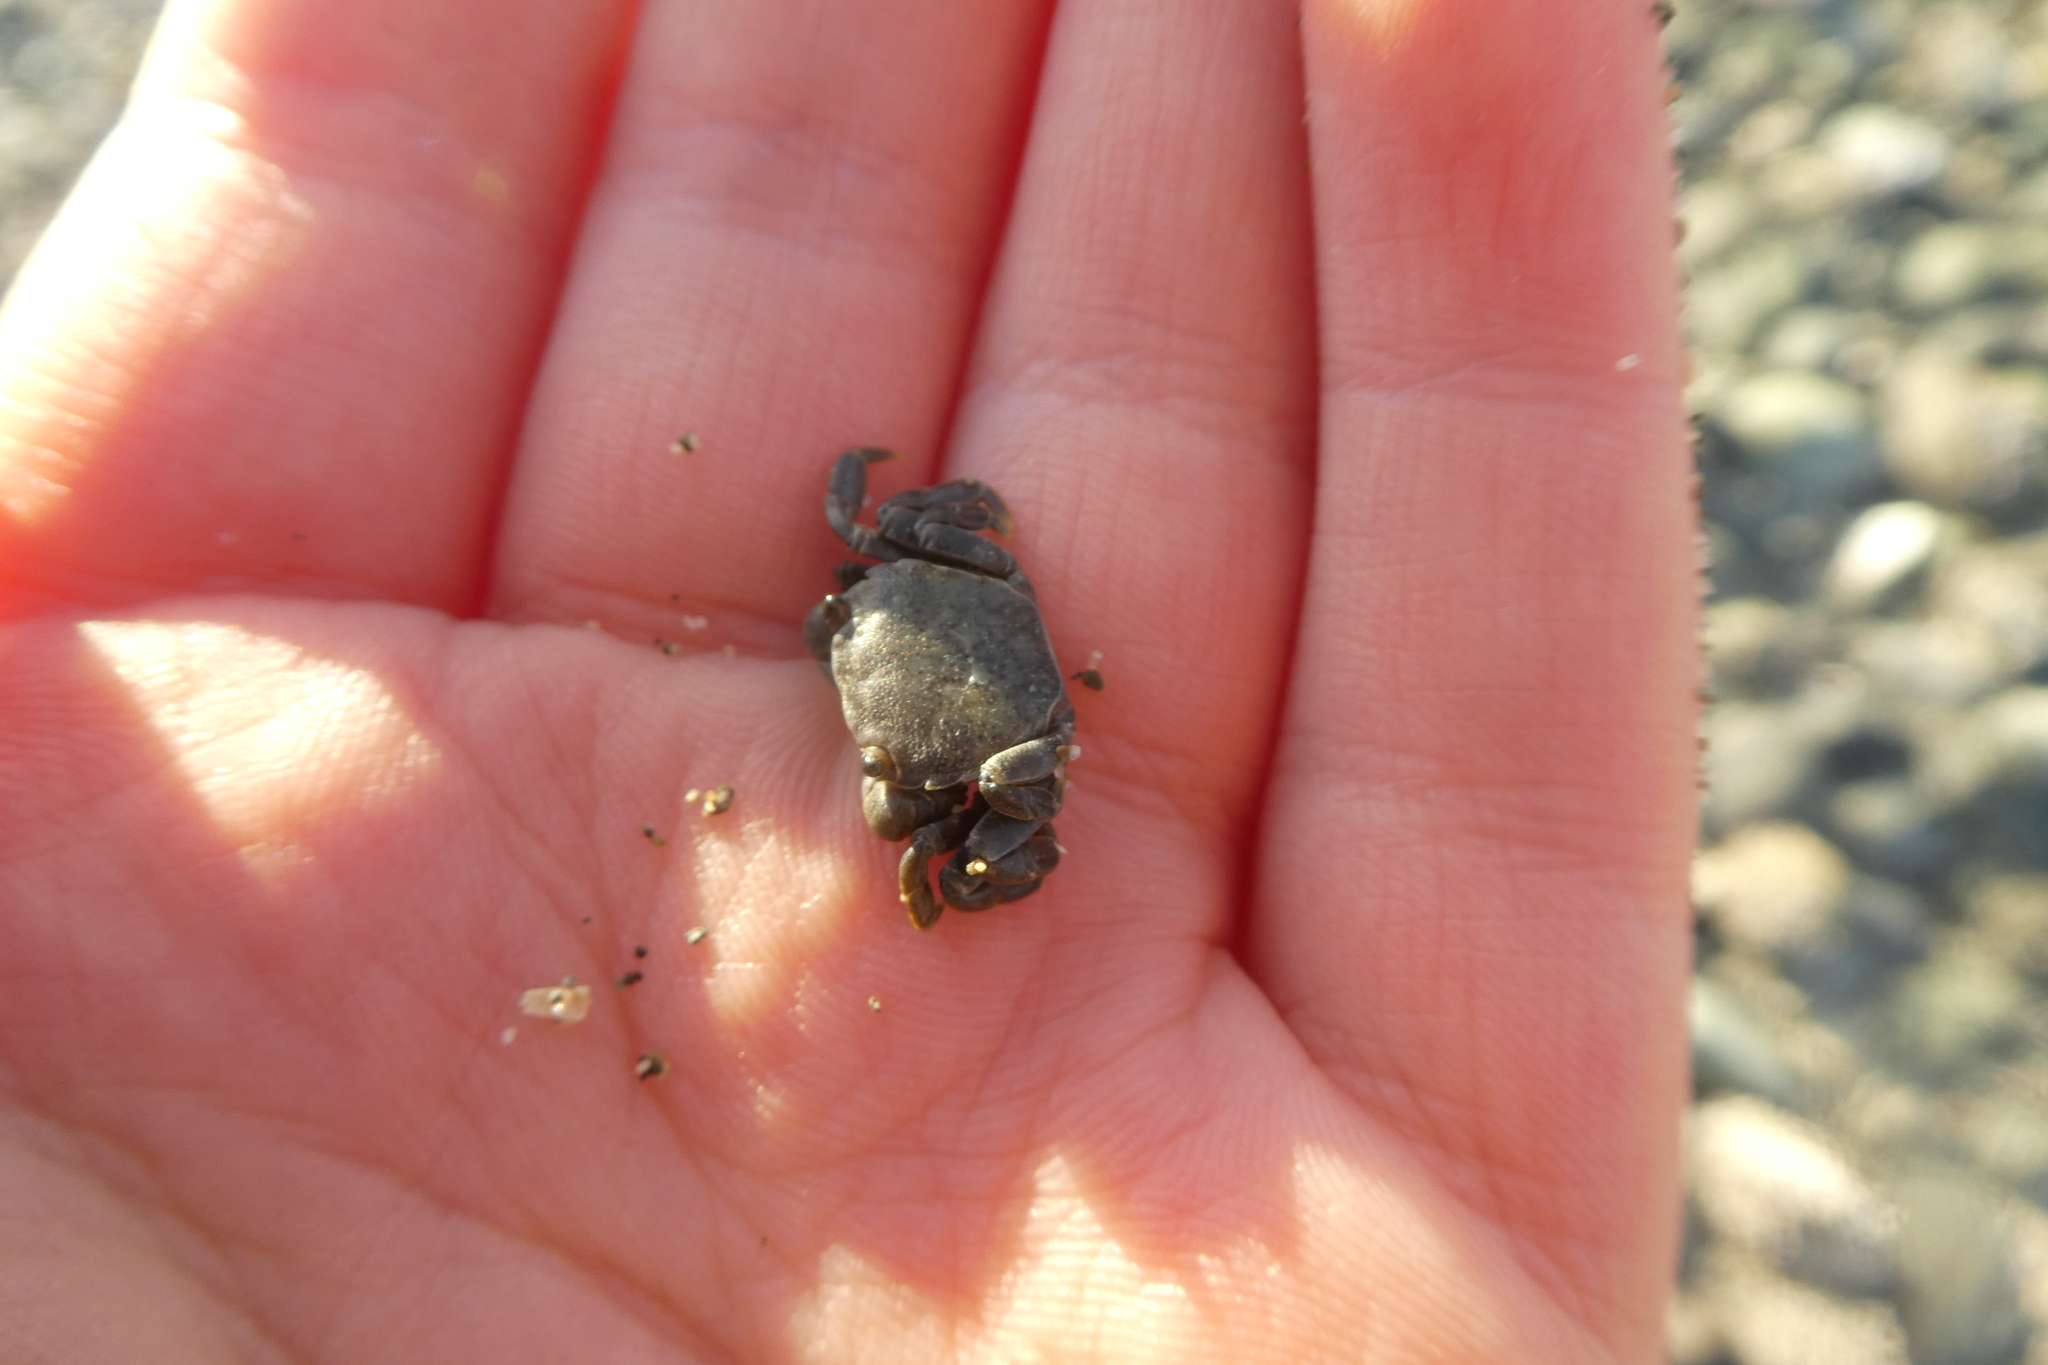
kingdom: Animalia
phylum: Arthropoda
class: Malacostraca
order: Decapoda
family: Varunidae
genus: Hemigrapsus
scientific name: Hemigrapsus nudus
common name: Purple shore crab
